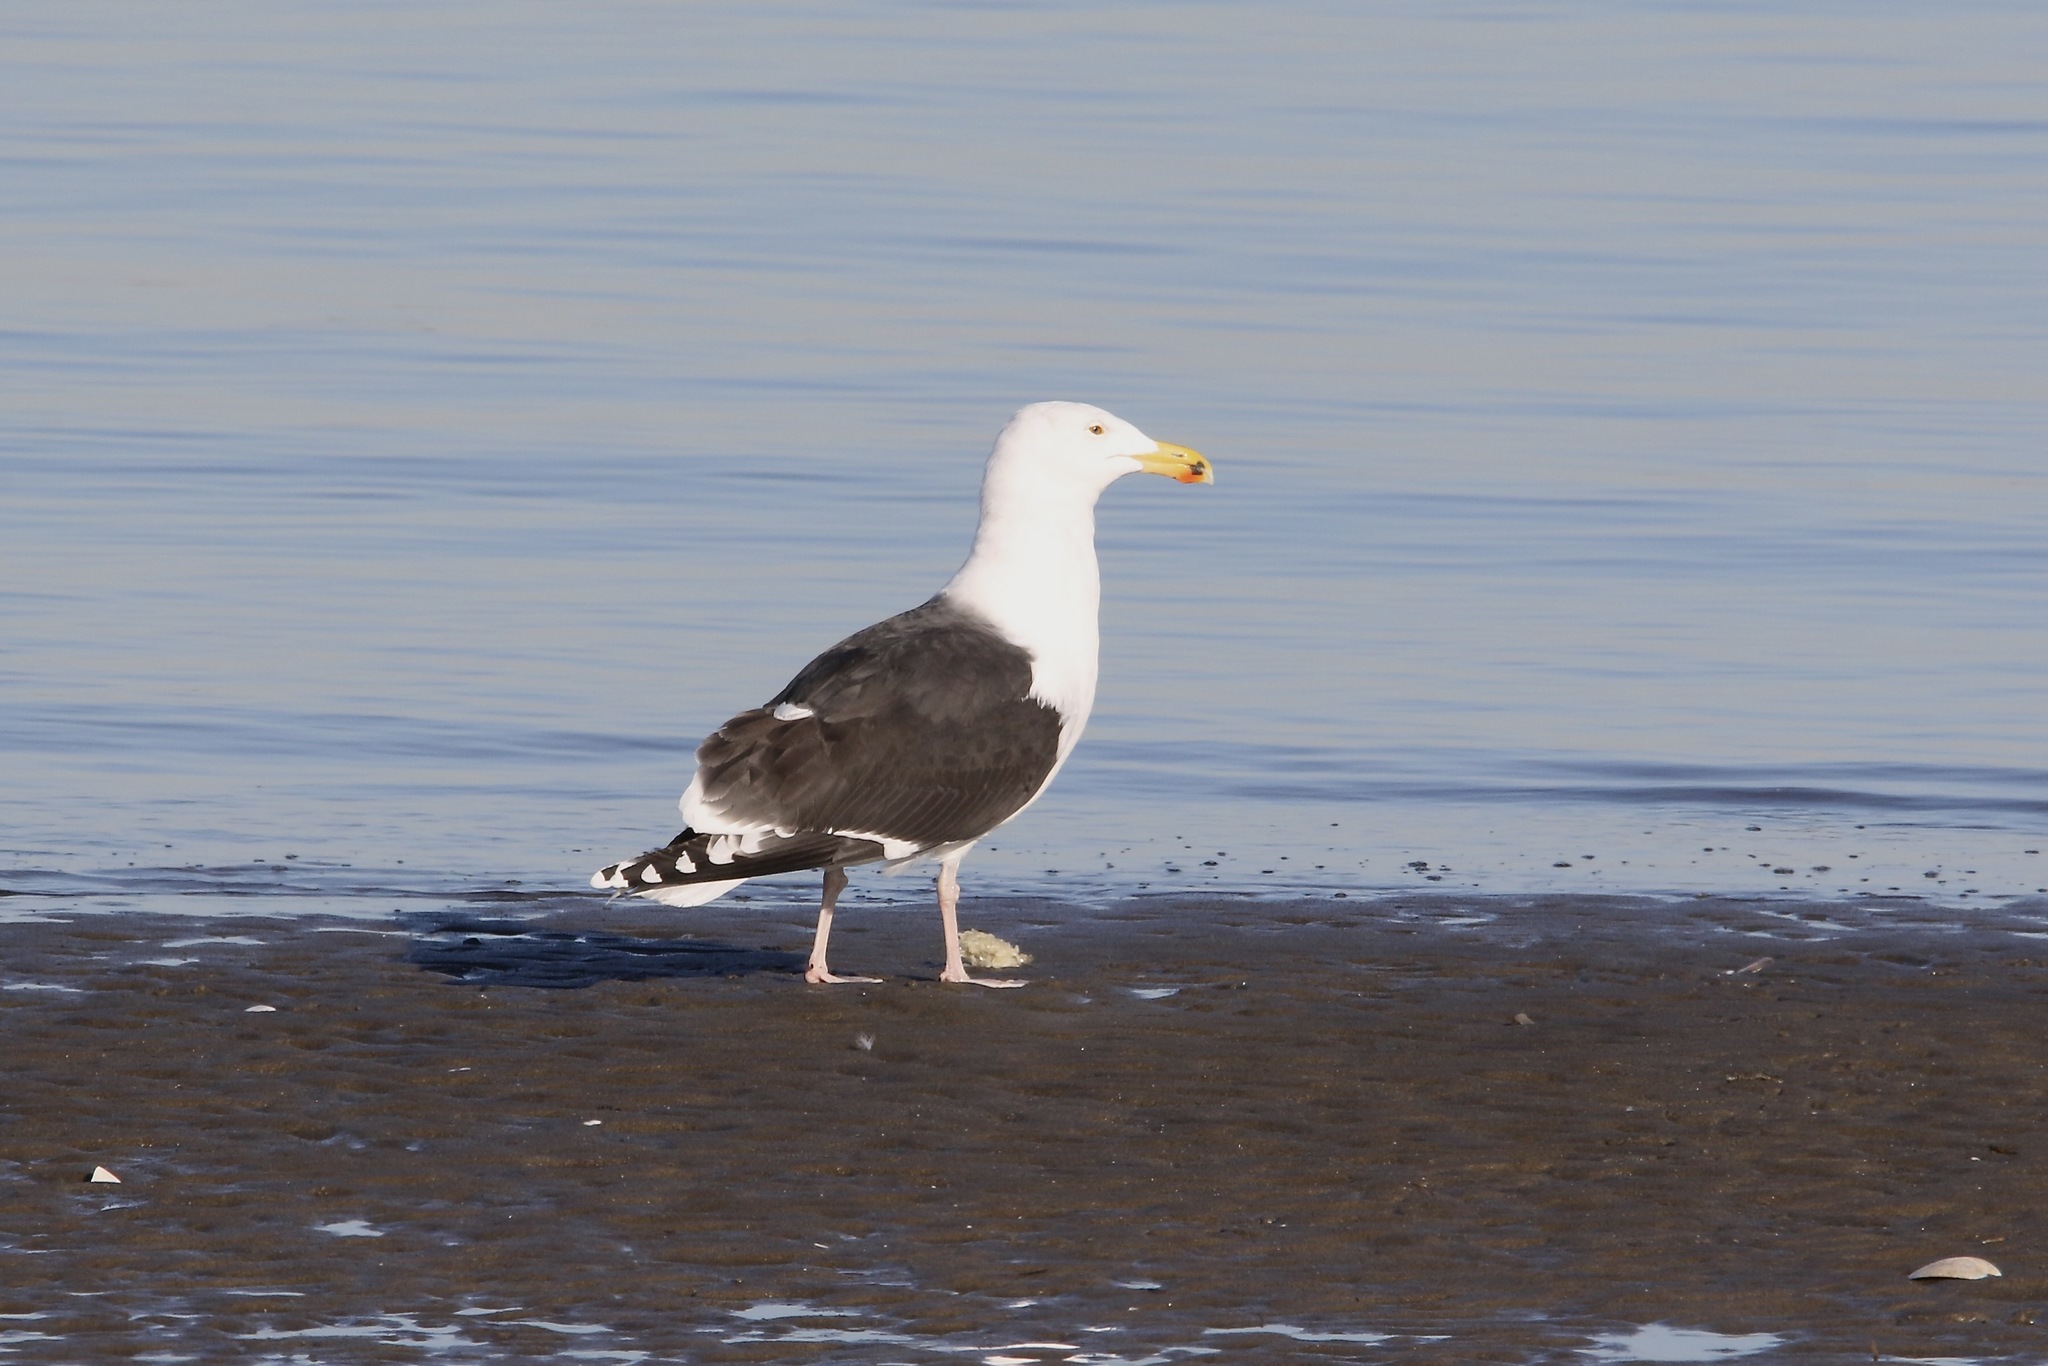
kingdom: Animalia
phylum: Chordata
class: Aves
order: Charadriiformes
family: Laridae
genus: Larus
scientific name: Larus marinus
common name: Great black-backed gull
